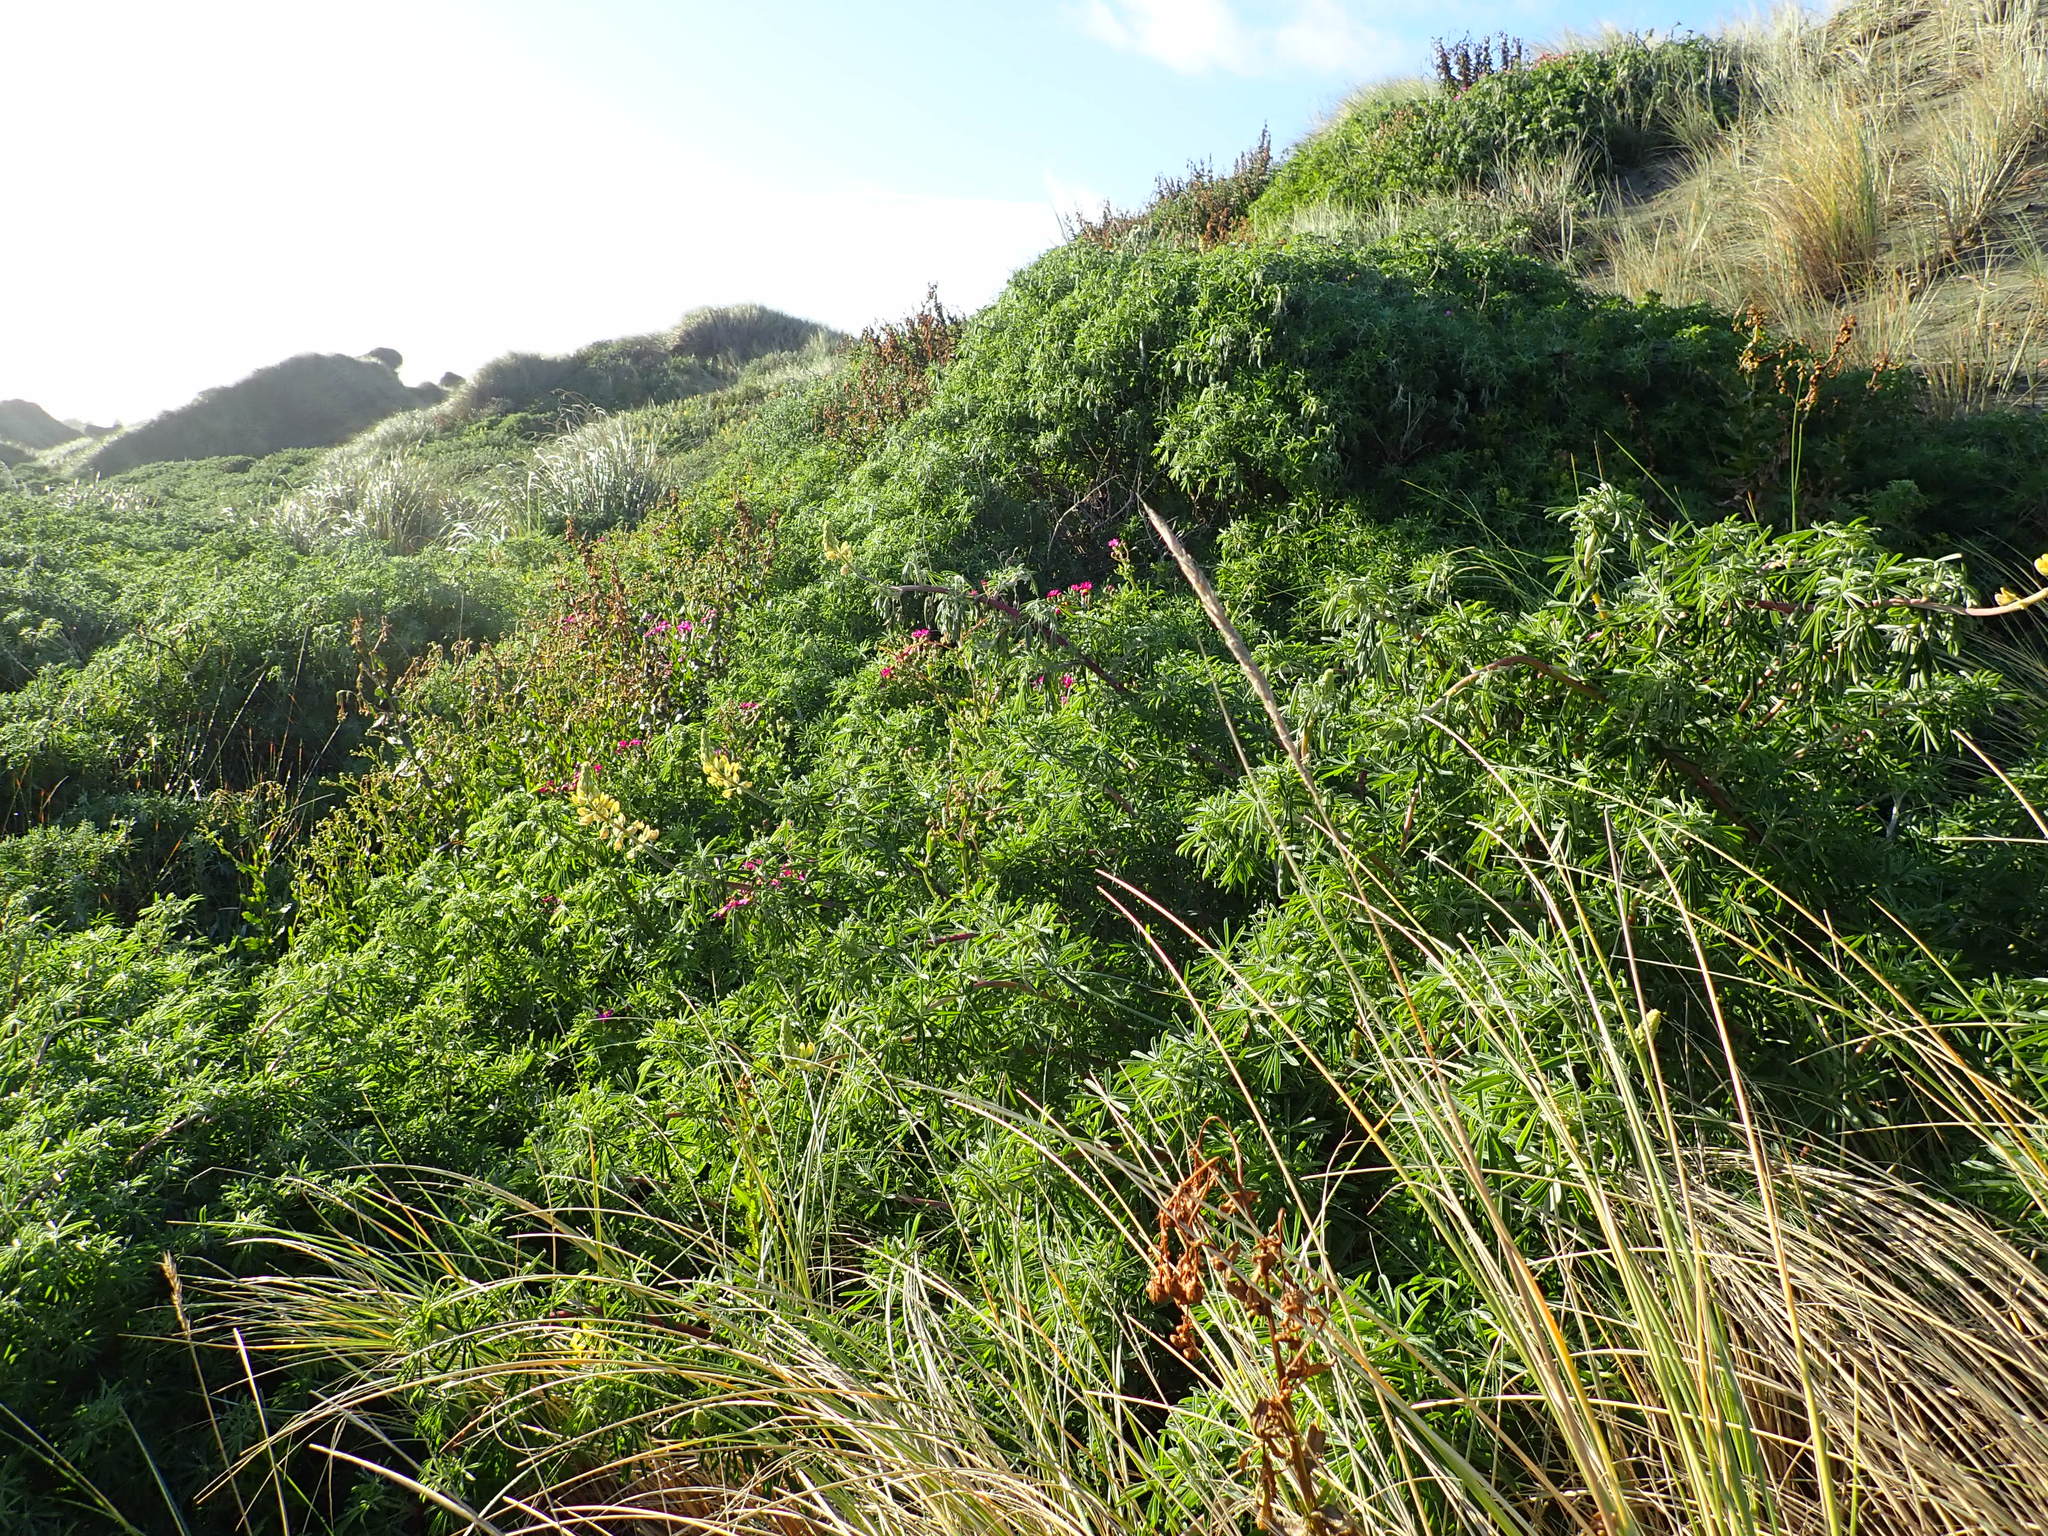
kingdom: Plantae
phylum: Tracheophyta
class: Magnoliopsida
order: Fabales
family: Fabaceae
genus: Lupinus
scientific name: Lupinus arboreus
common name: Yellow bush lupine
